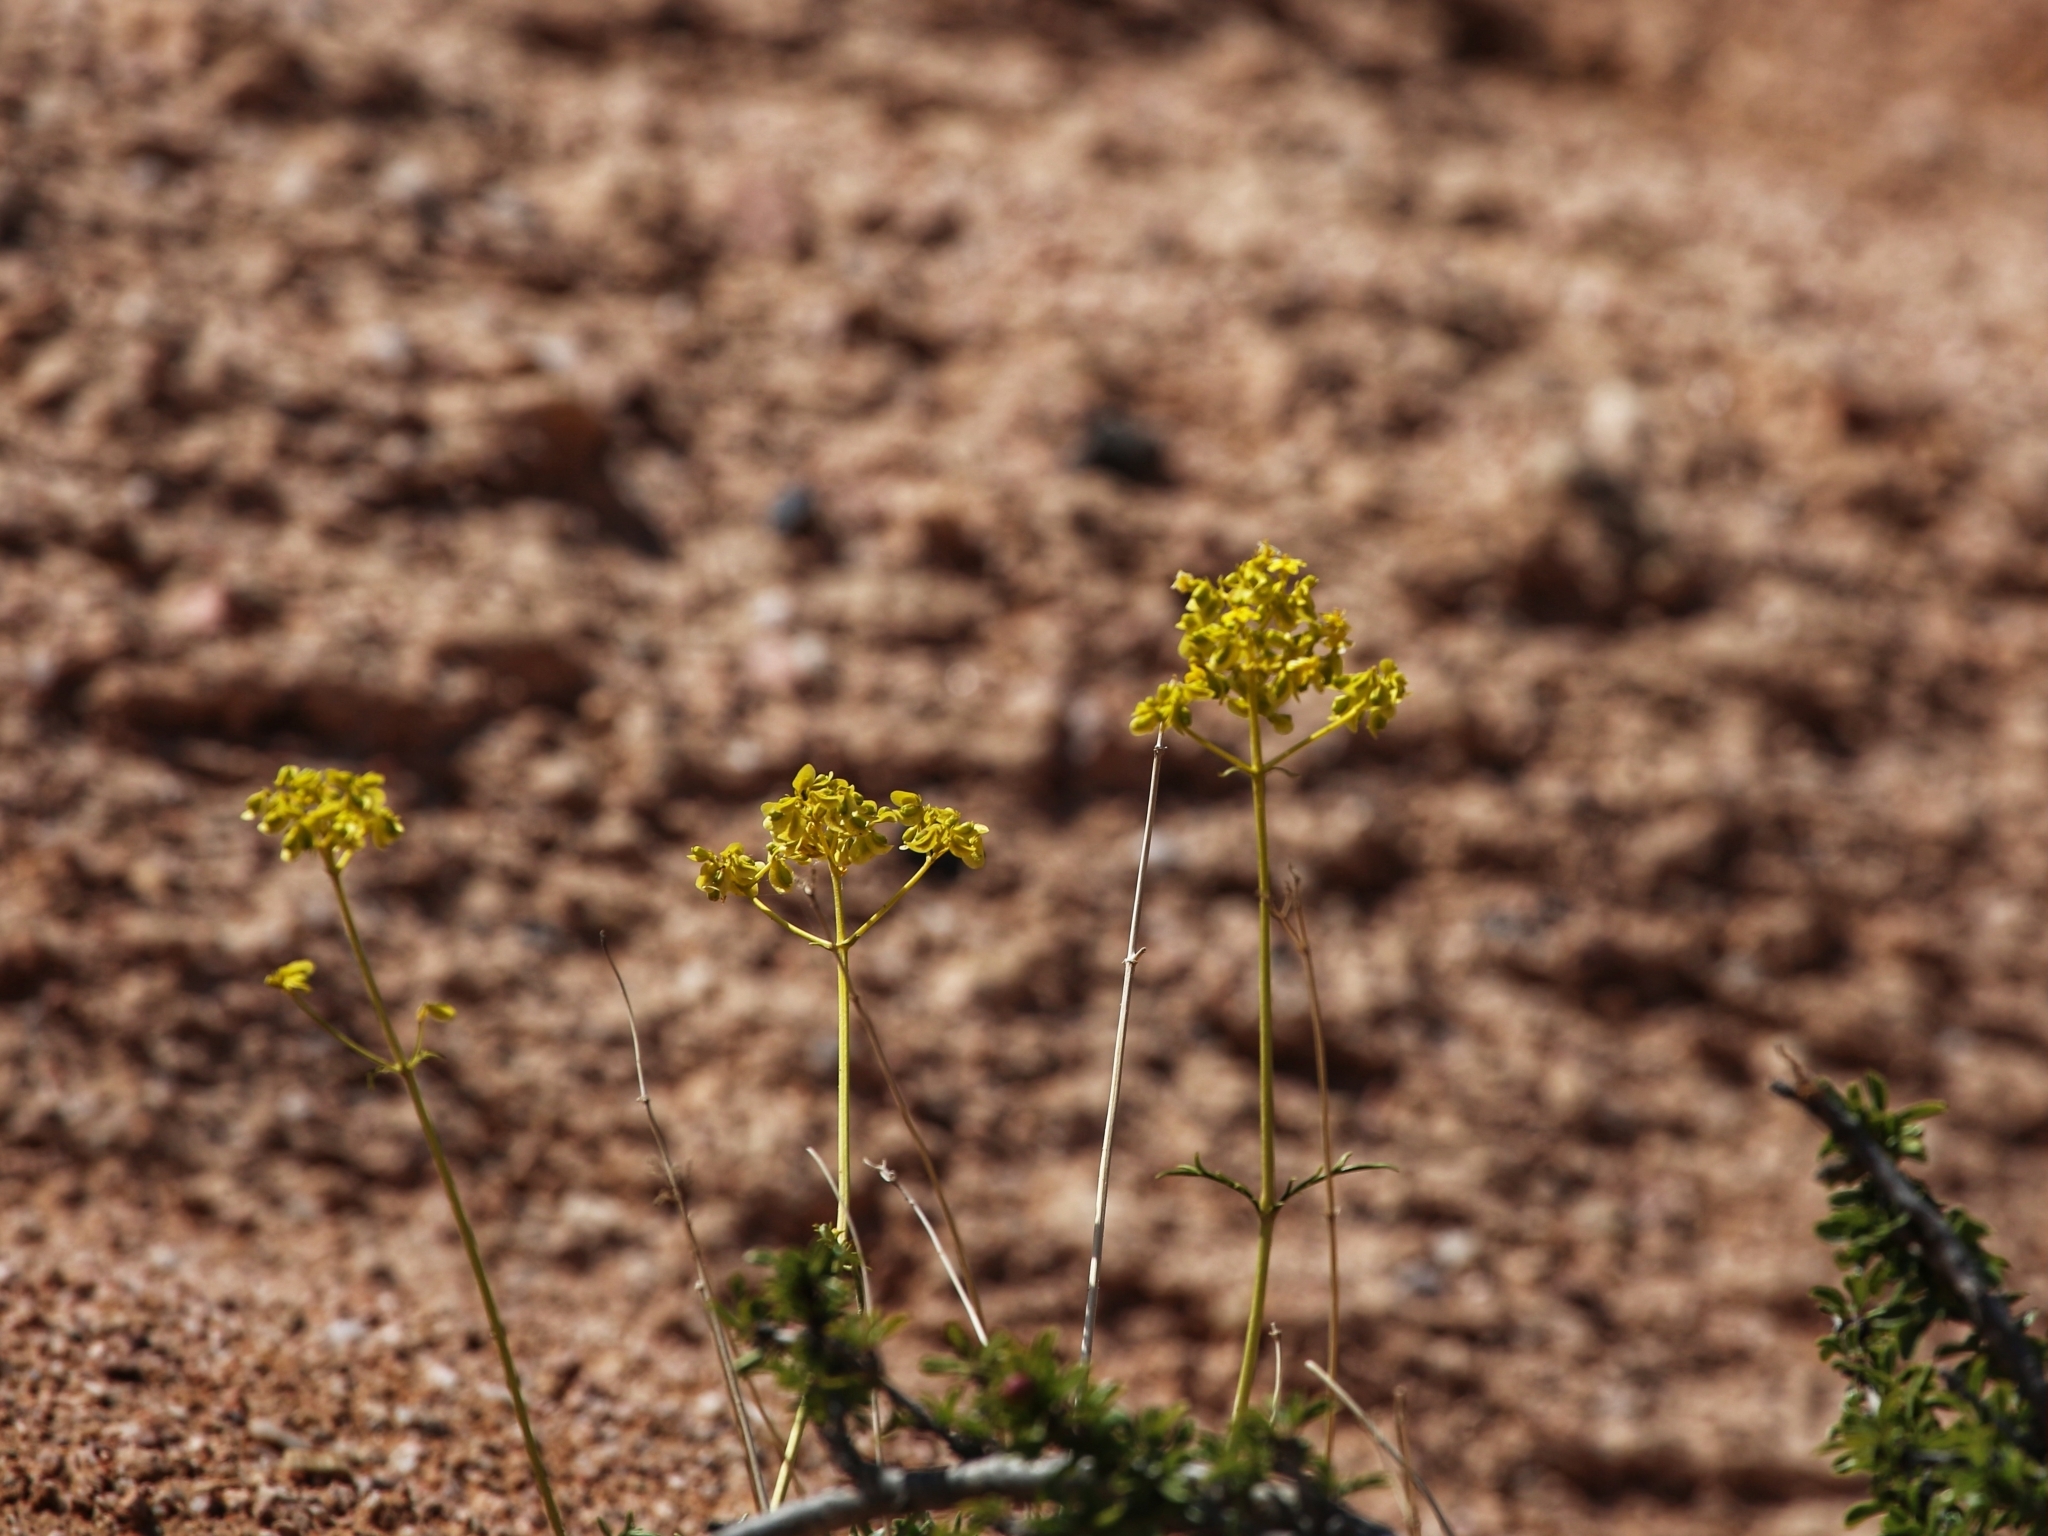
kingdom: Plantae
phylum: Tracheophyta
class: Magnoliopsida
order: Dipsacales
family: Caprifoliaceae
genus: Patrinia
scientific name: Patrinia intermedia
